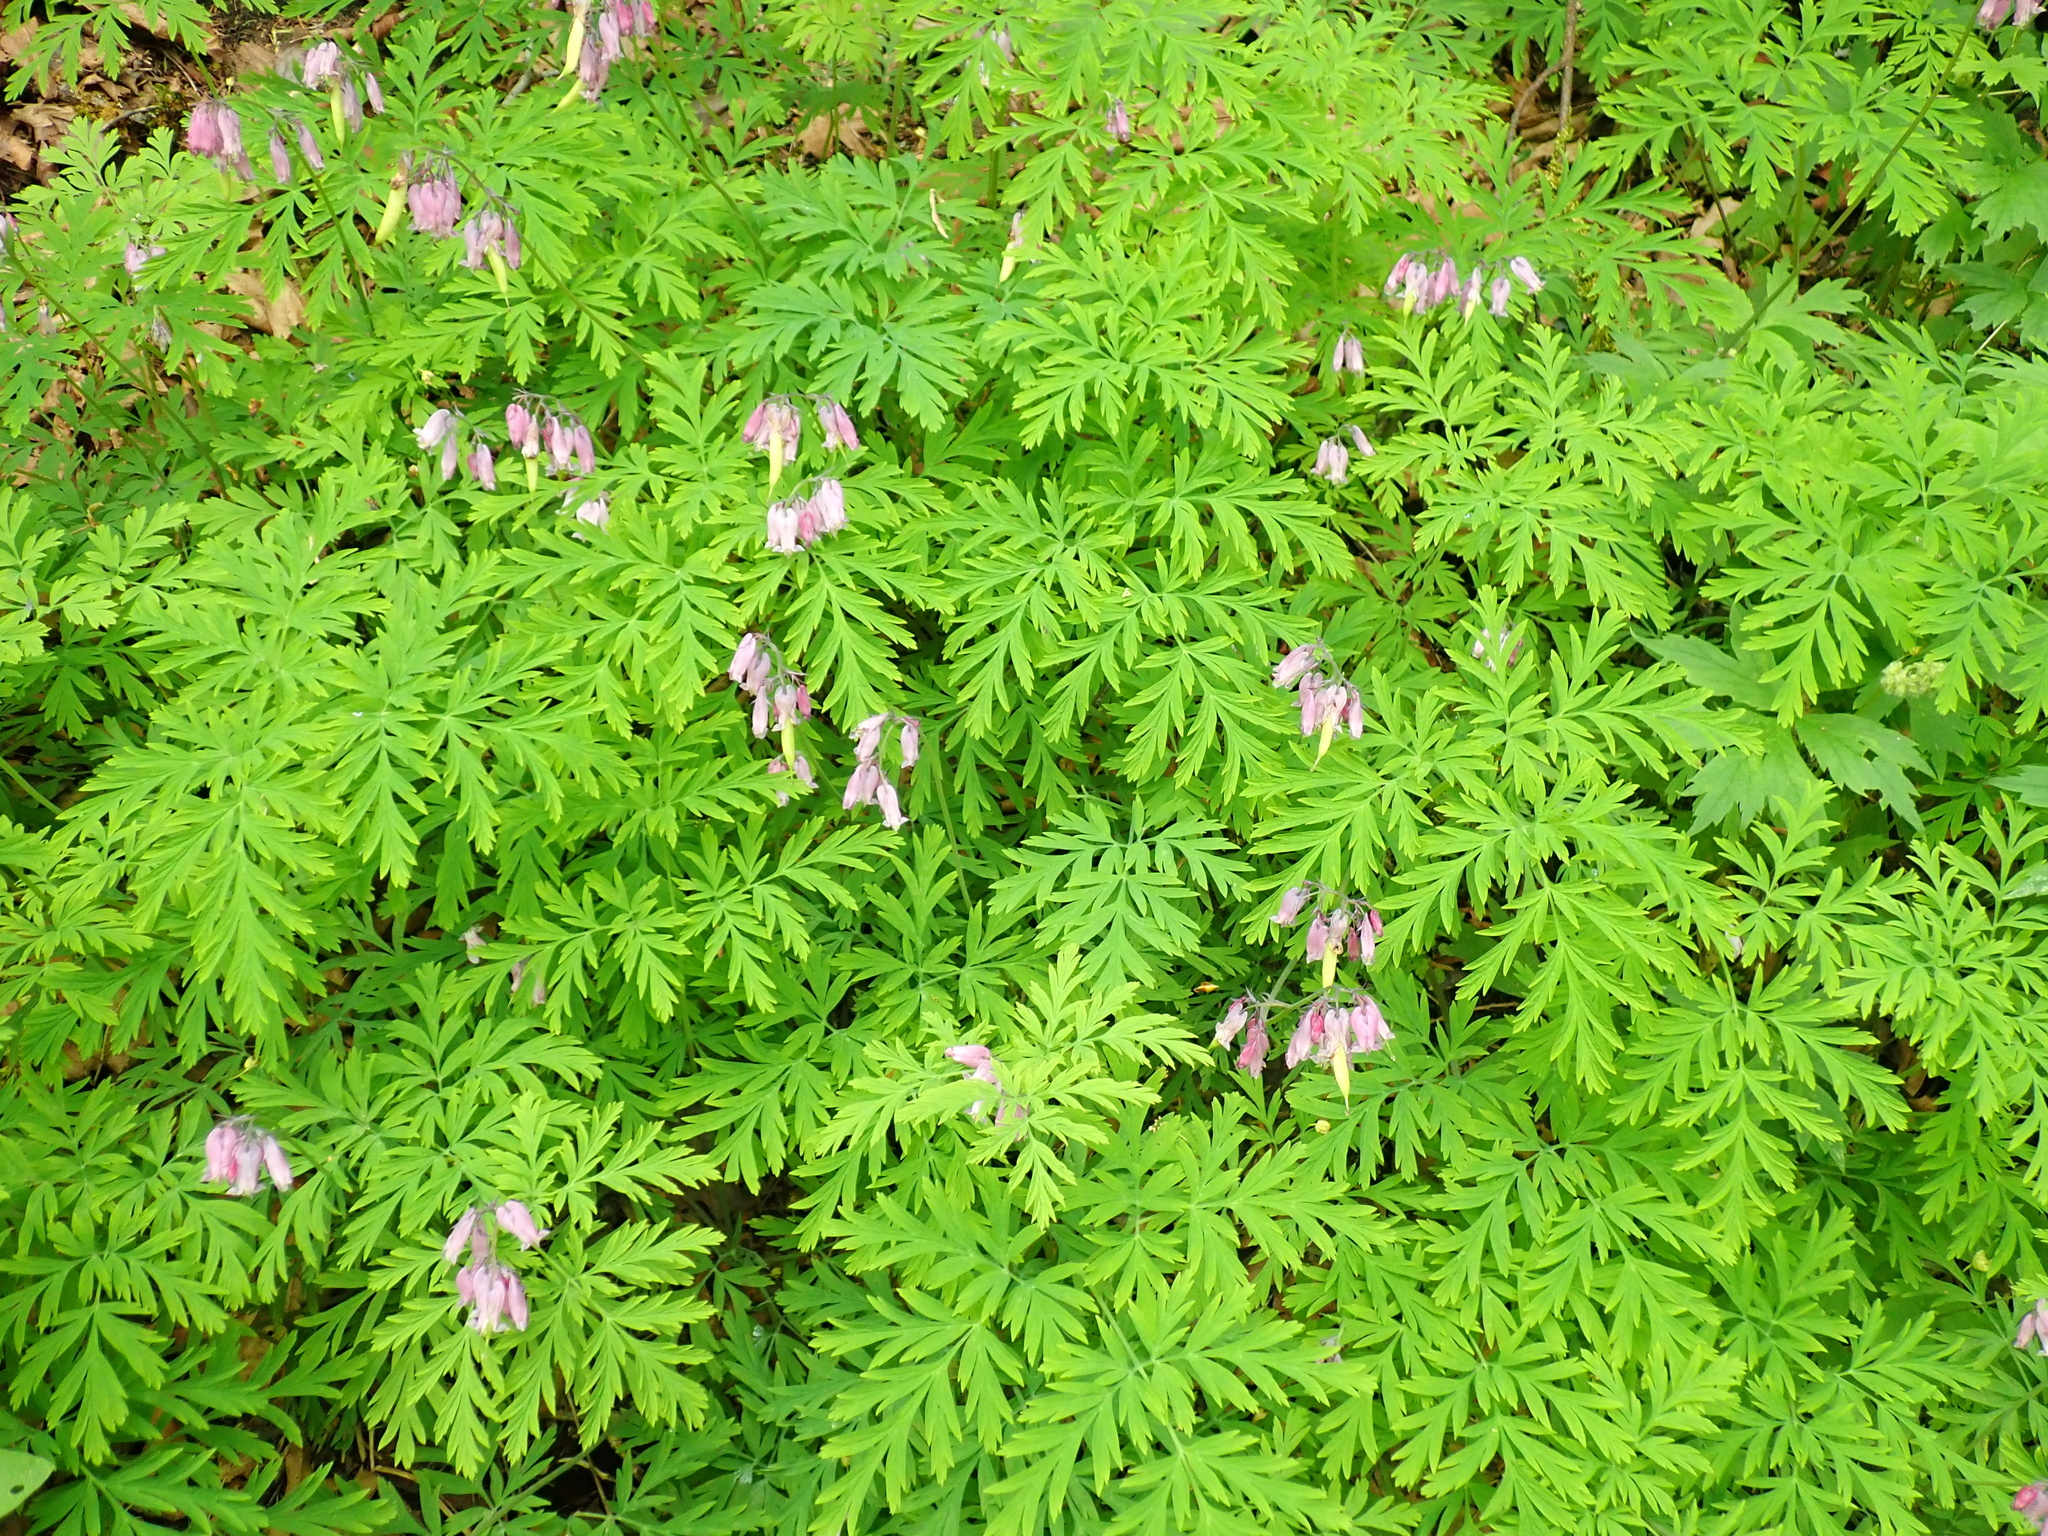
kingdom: Plantae
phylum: Tracheophyta
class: Magnoliopsida
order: Ranunculales
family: Papaveraceae
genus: Dicentra
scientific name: Dicentra formosa
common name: Bleeding-heart
